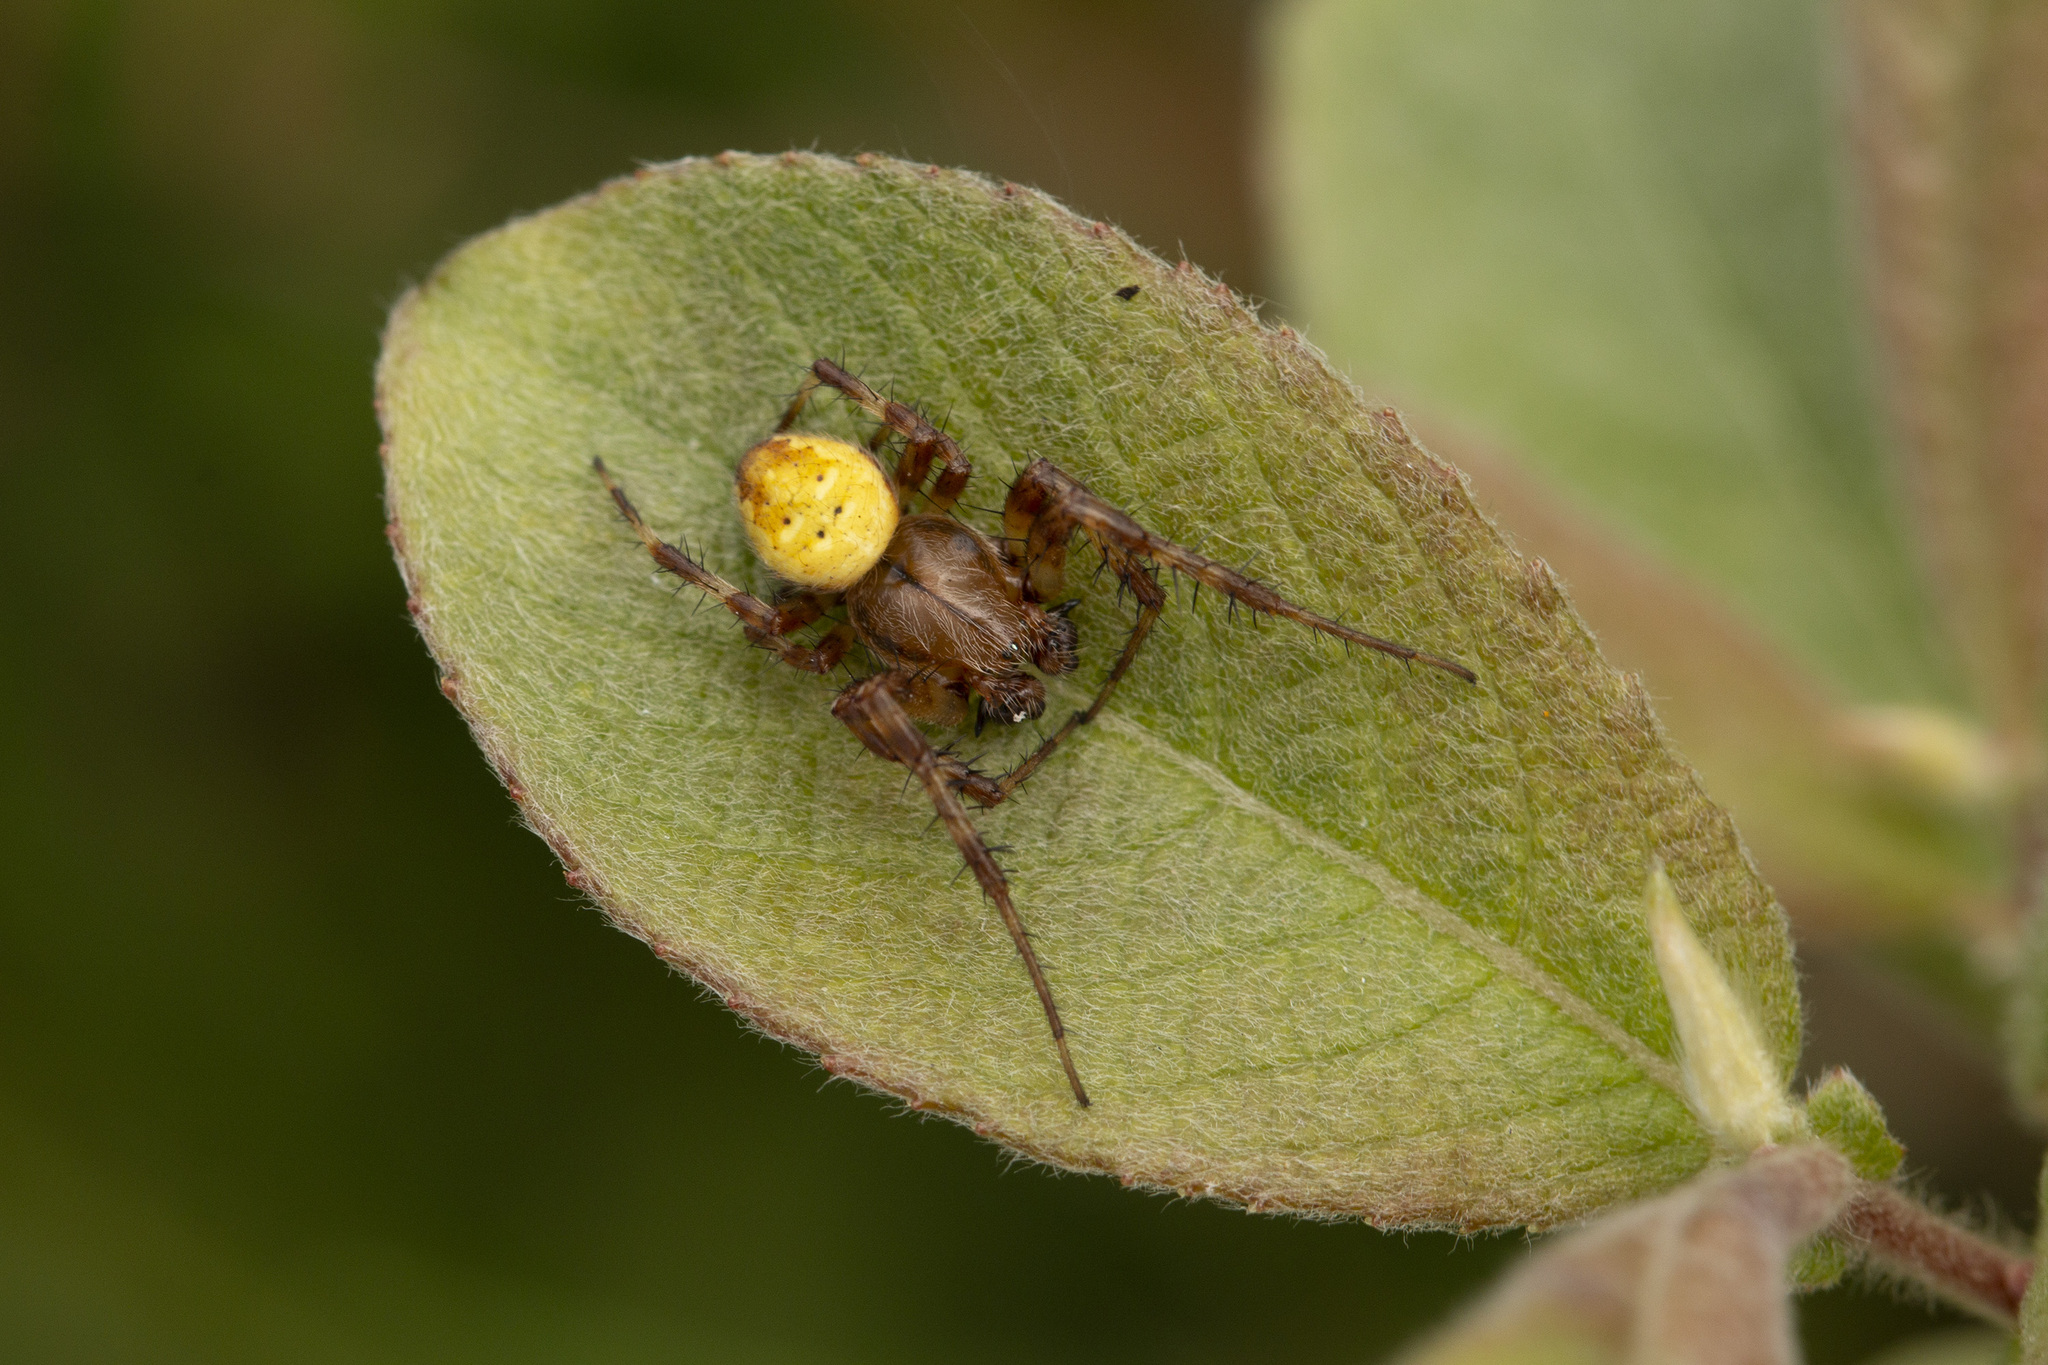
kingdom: Animalia
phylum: Arthropoda
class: Arachnida
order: Araneae
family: Araneidae
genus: Araneus
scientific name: Araneus quadratus
